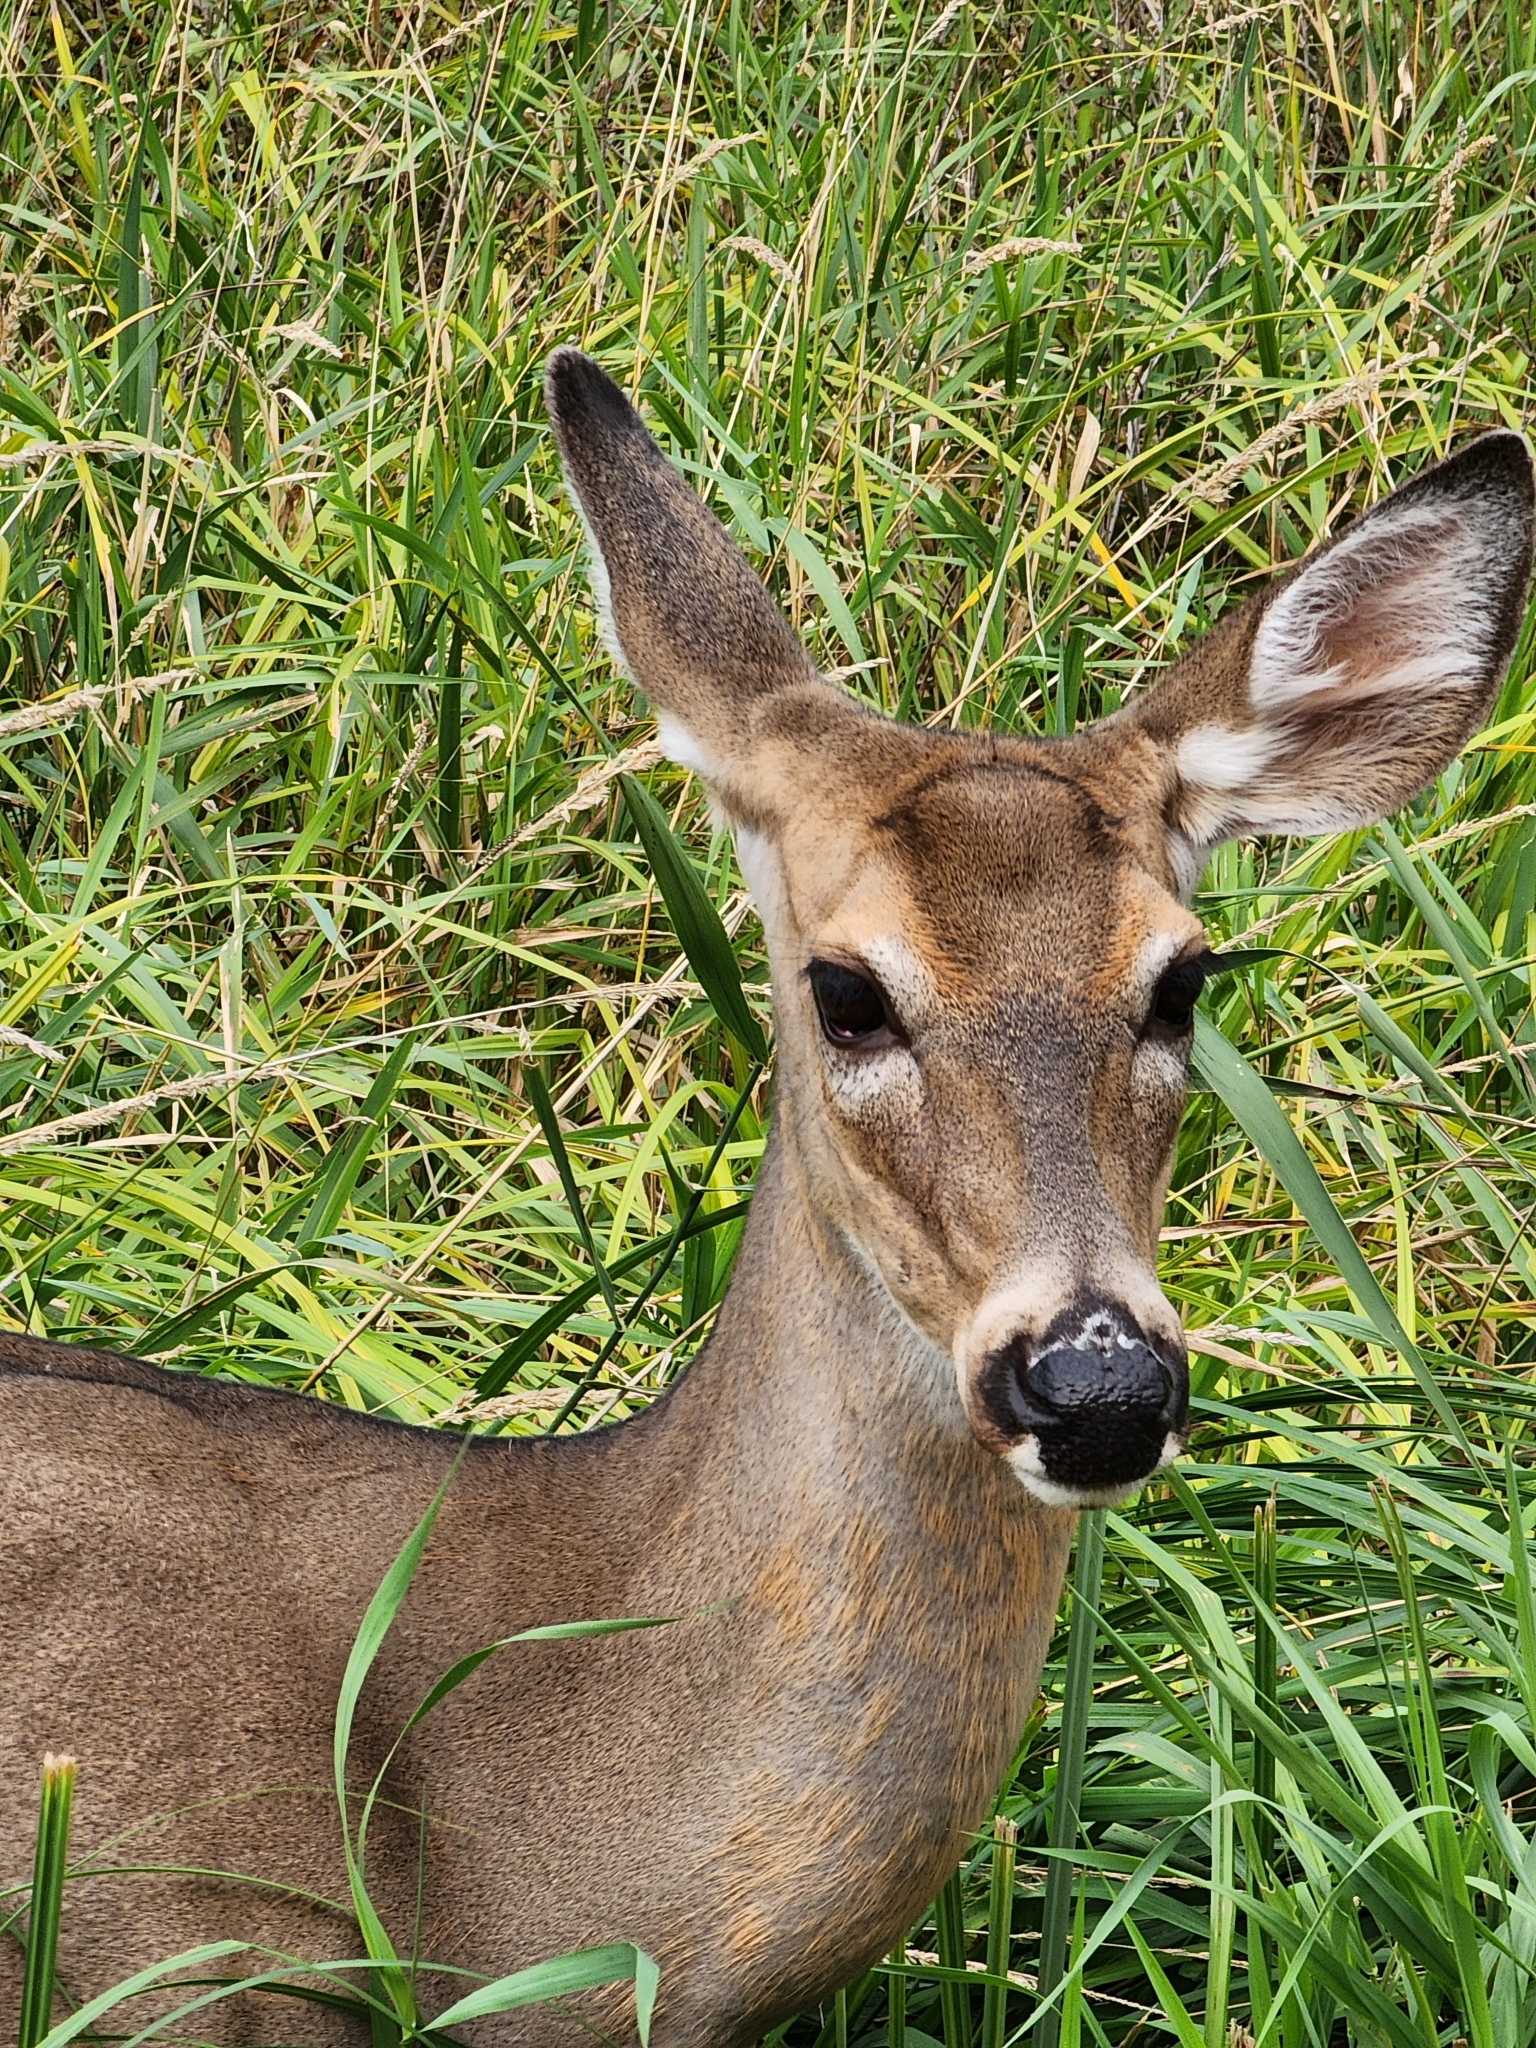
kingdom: Animalia
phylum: Chordata
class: Mammalia
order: Artiodactyla
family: Cervidae
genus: Odocoileus
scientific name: Odocoileus virginianus
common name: White-tailed deer
